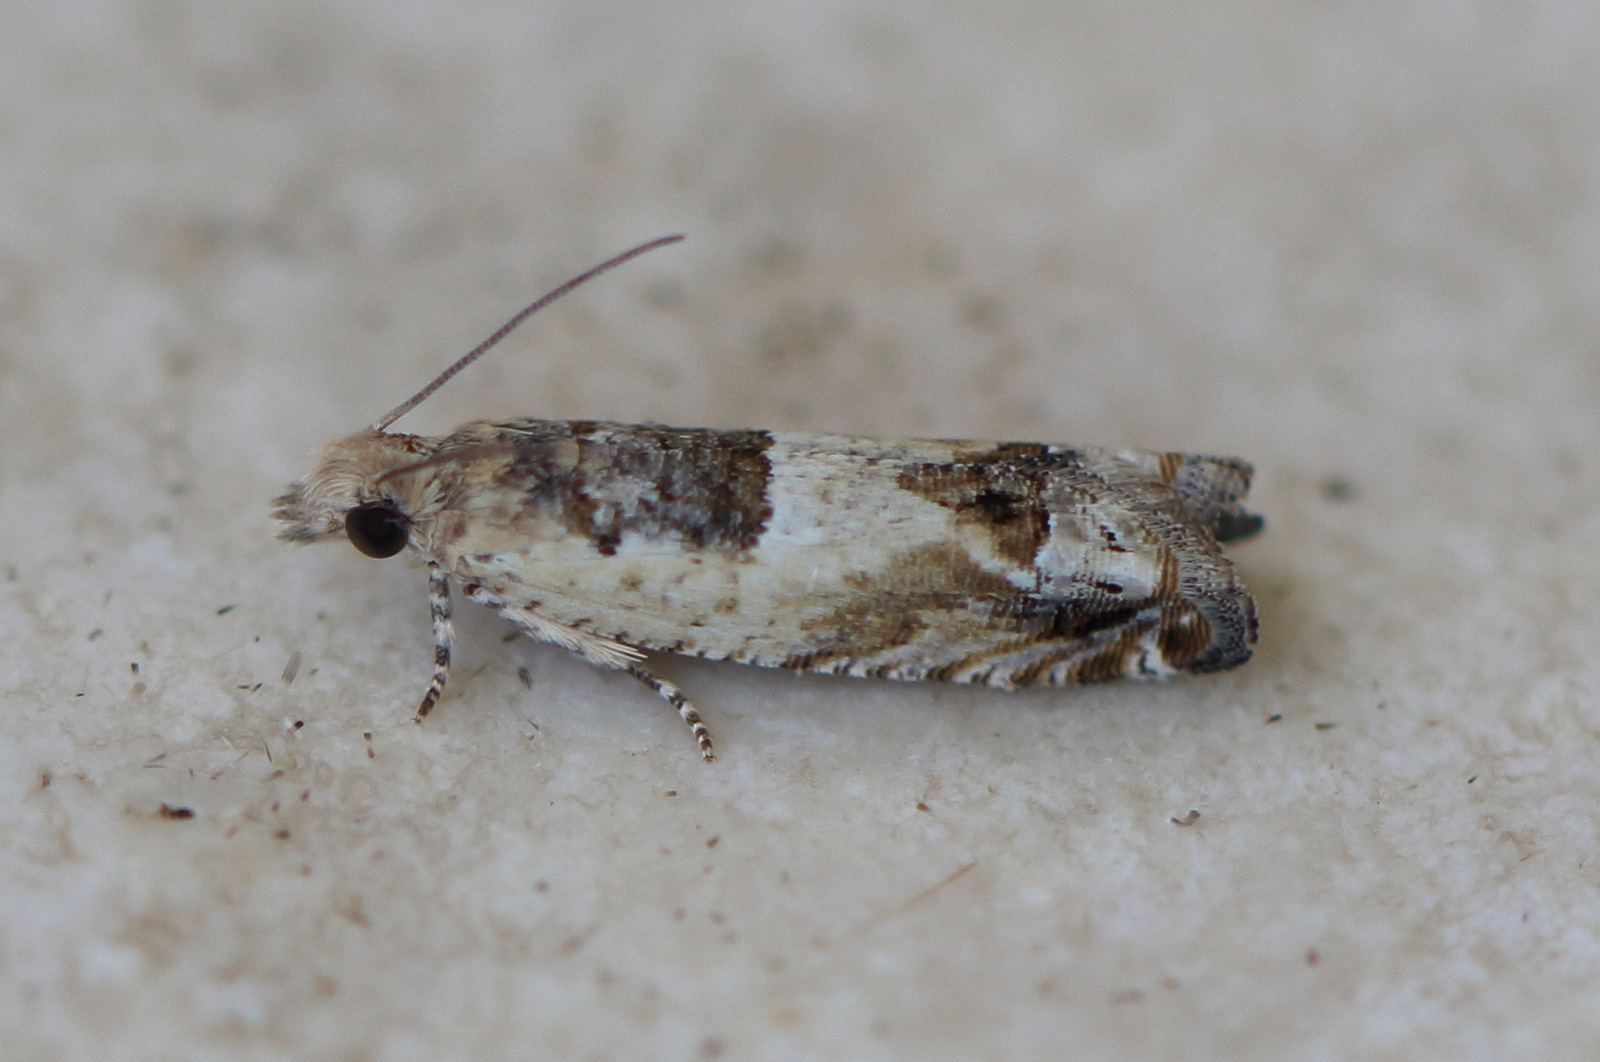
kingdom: Animalia
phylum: Arthropoda
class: Insecta
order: Lepidoptera
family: Tortricidae
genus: Crocidosema
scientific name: Crocidosema plebejana
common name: Southern bell
